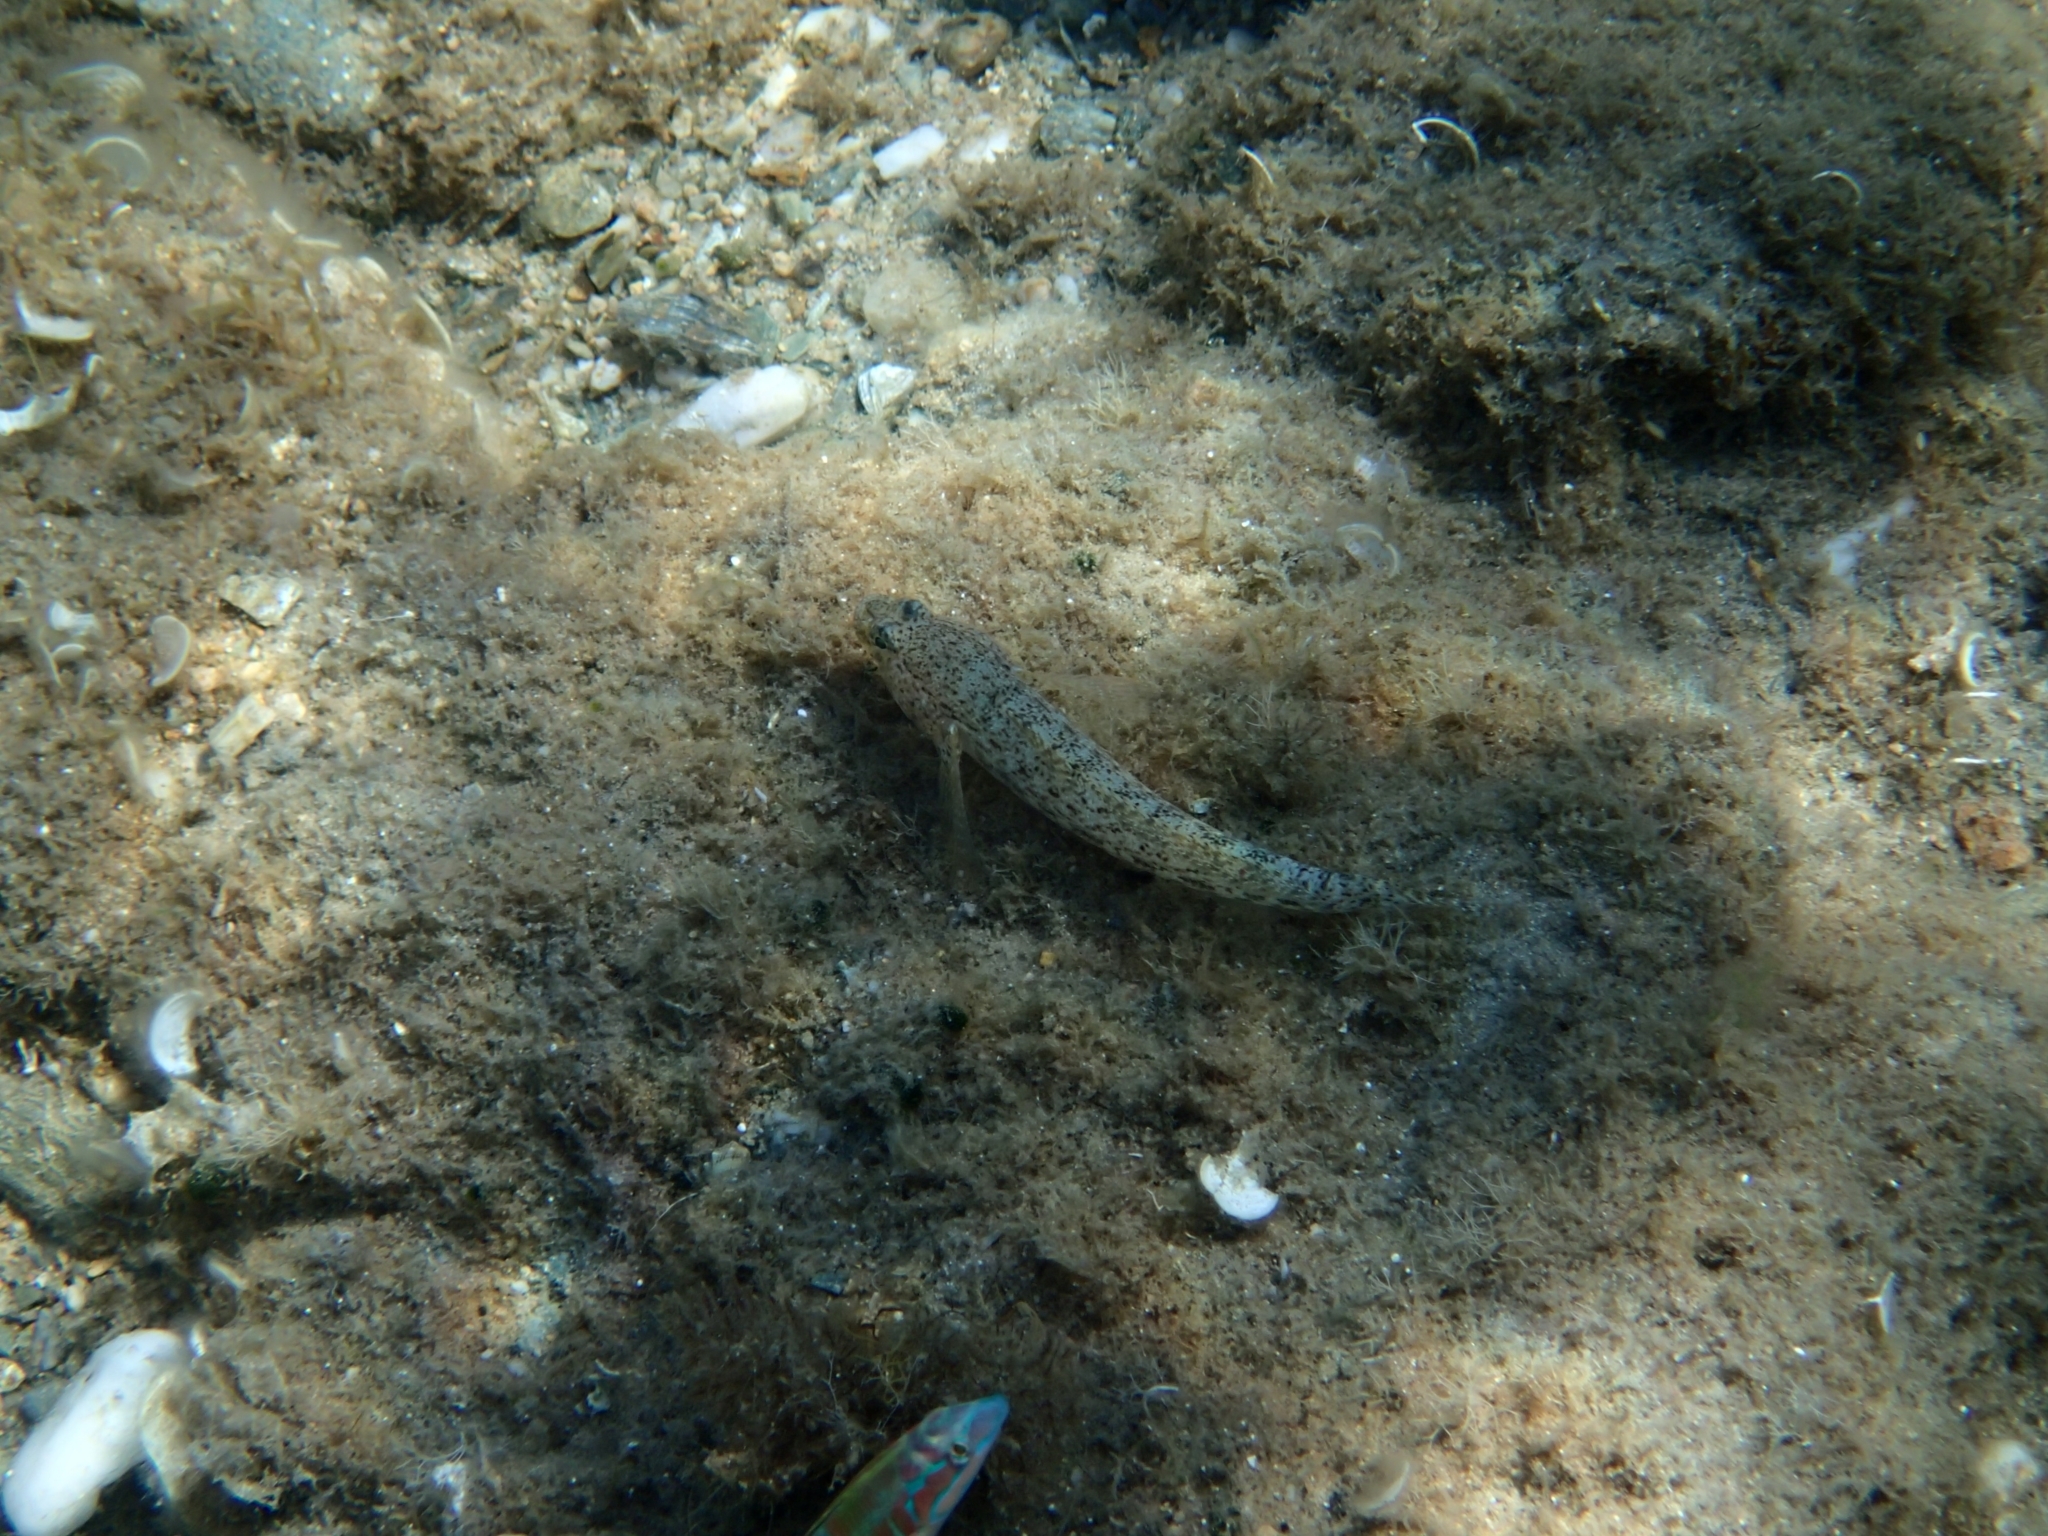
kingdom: Animalia
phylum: Chordata
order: Perciformes
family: Gobiidae
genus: Gobius
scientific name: Gobius incognitus
